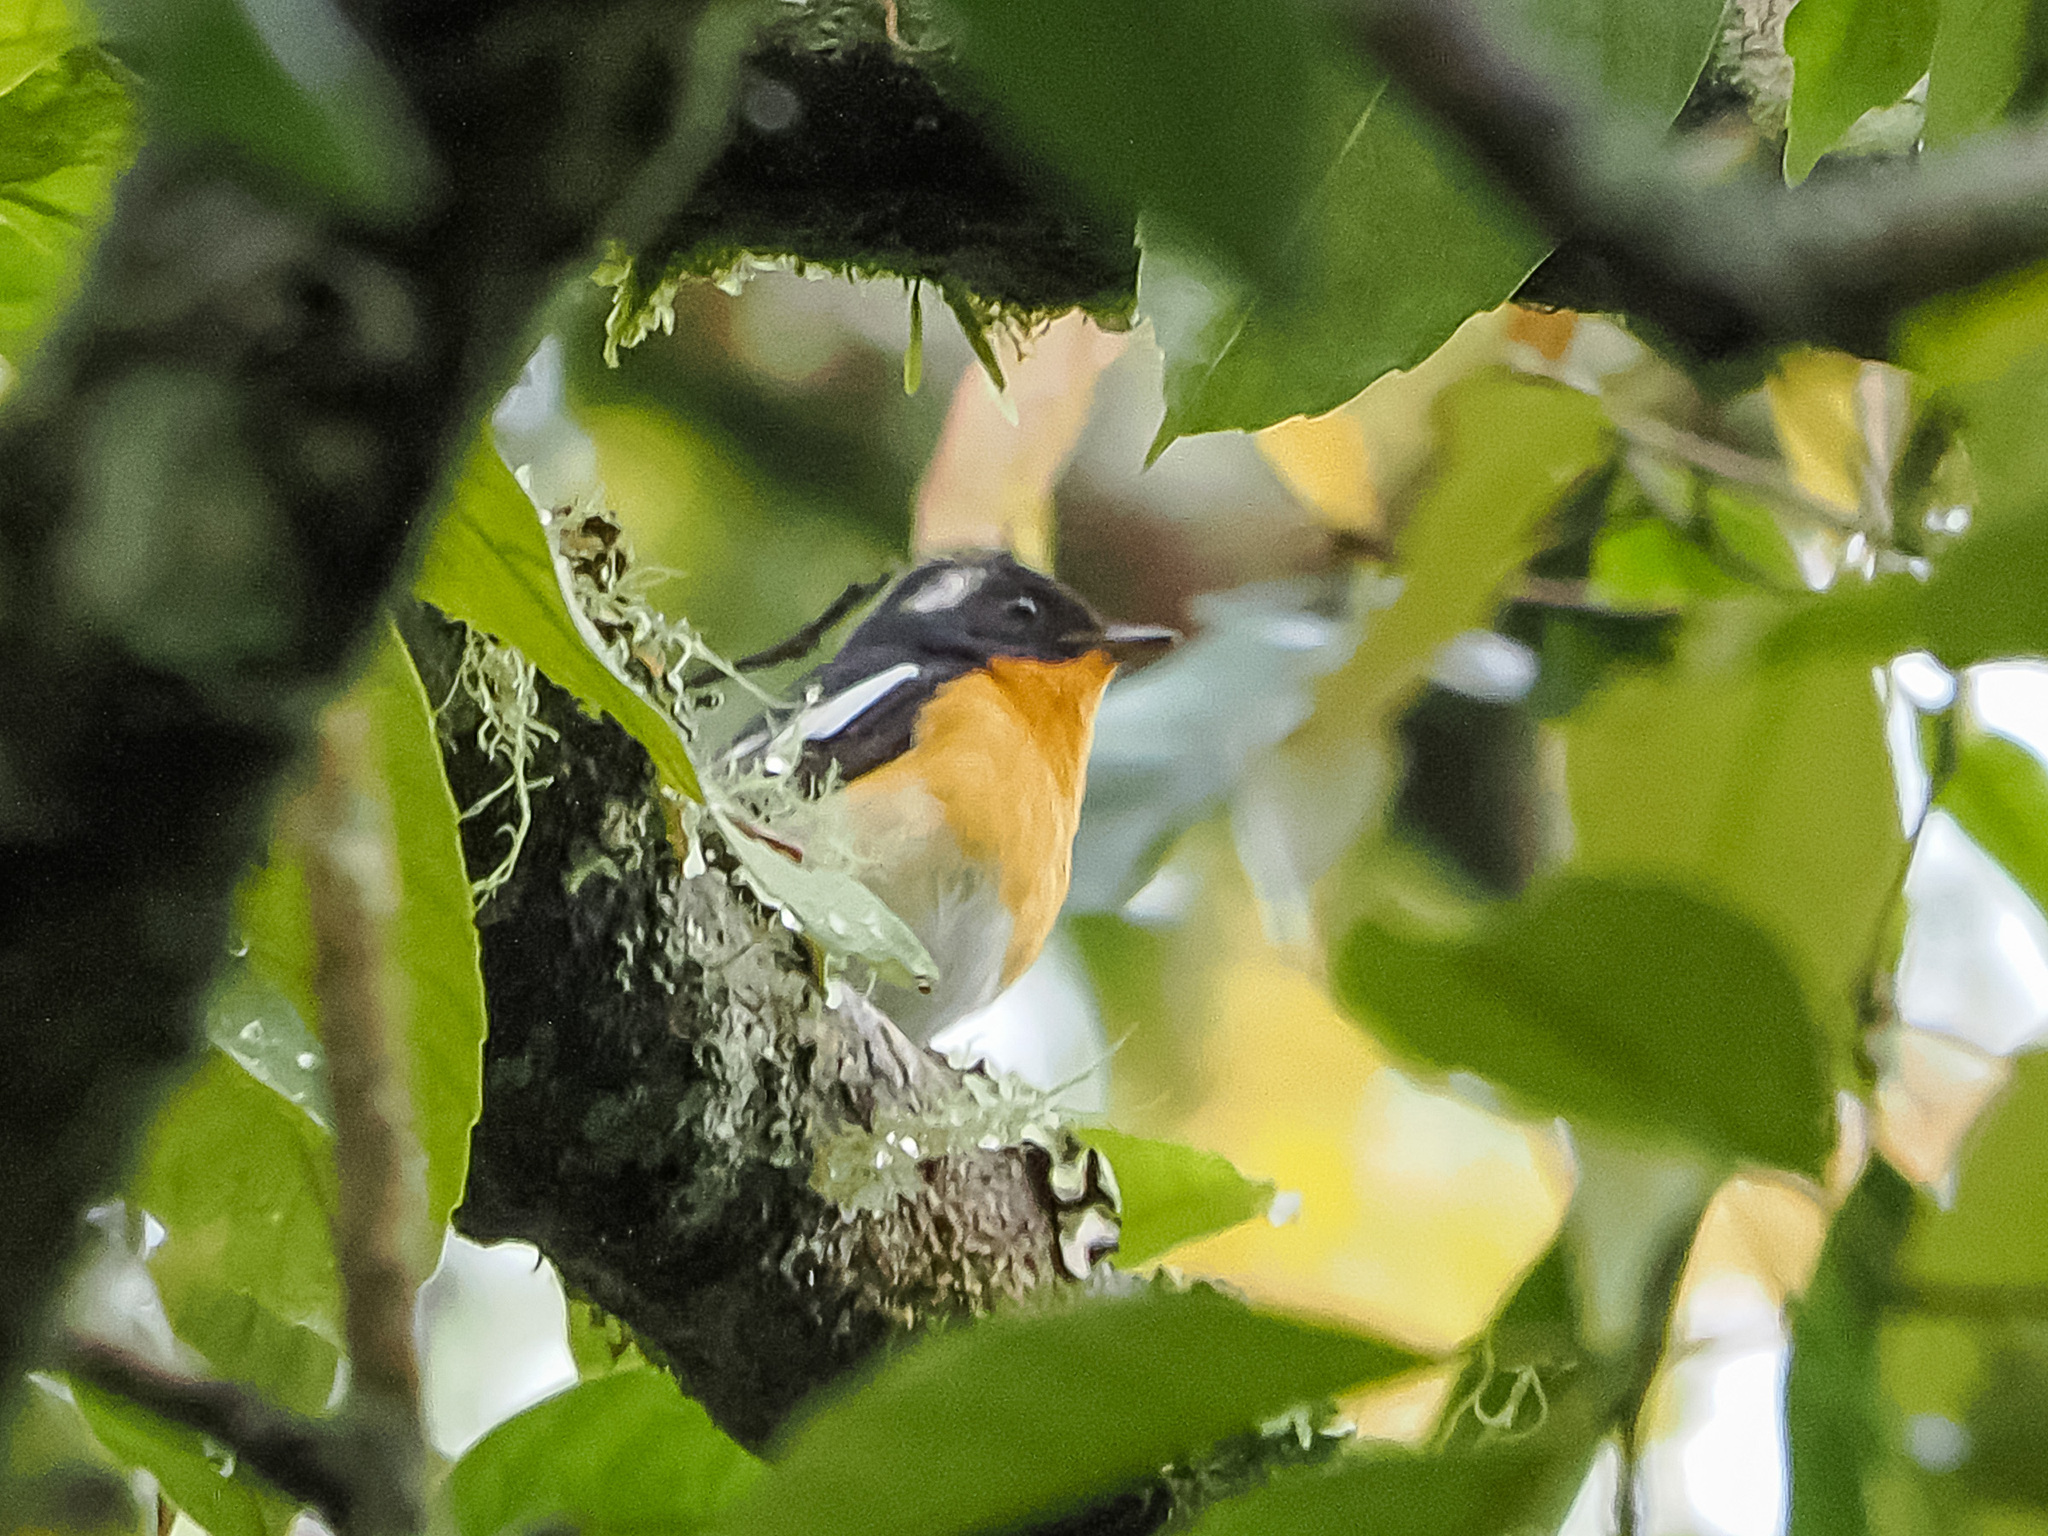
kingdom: Animalia
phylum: Chordata
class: Aves
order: Passeriformes
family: Muscicapidae
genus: Ficedula
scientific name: Ficedula mugimaki
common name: Mugimaki flycatcher
